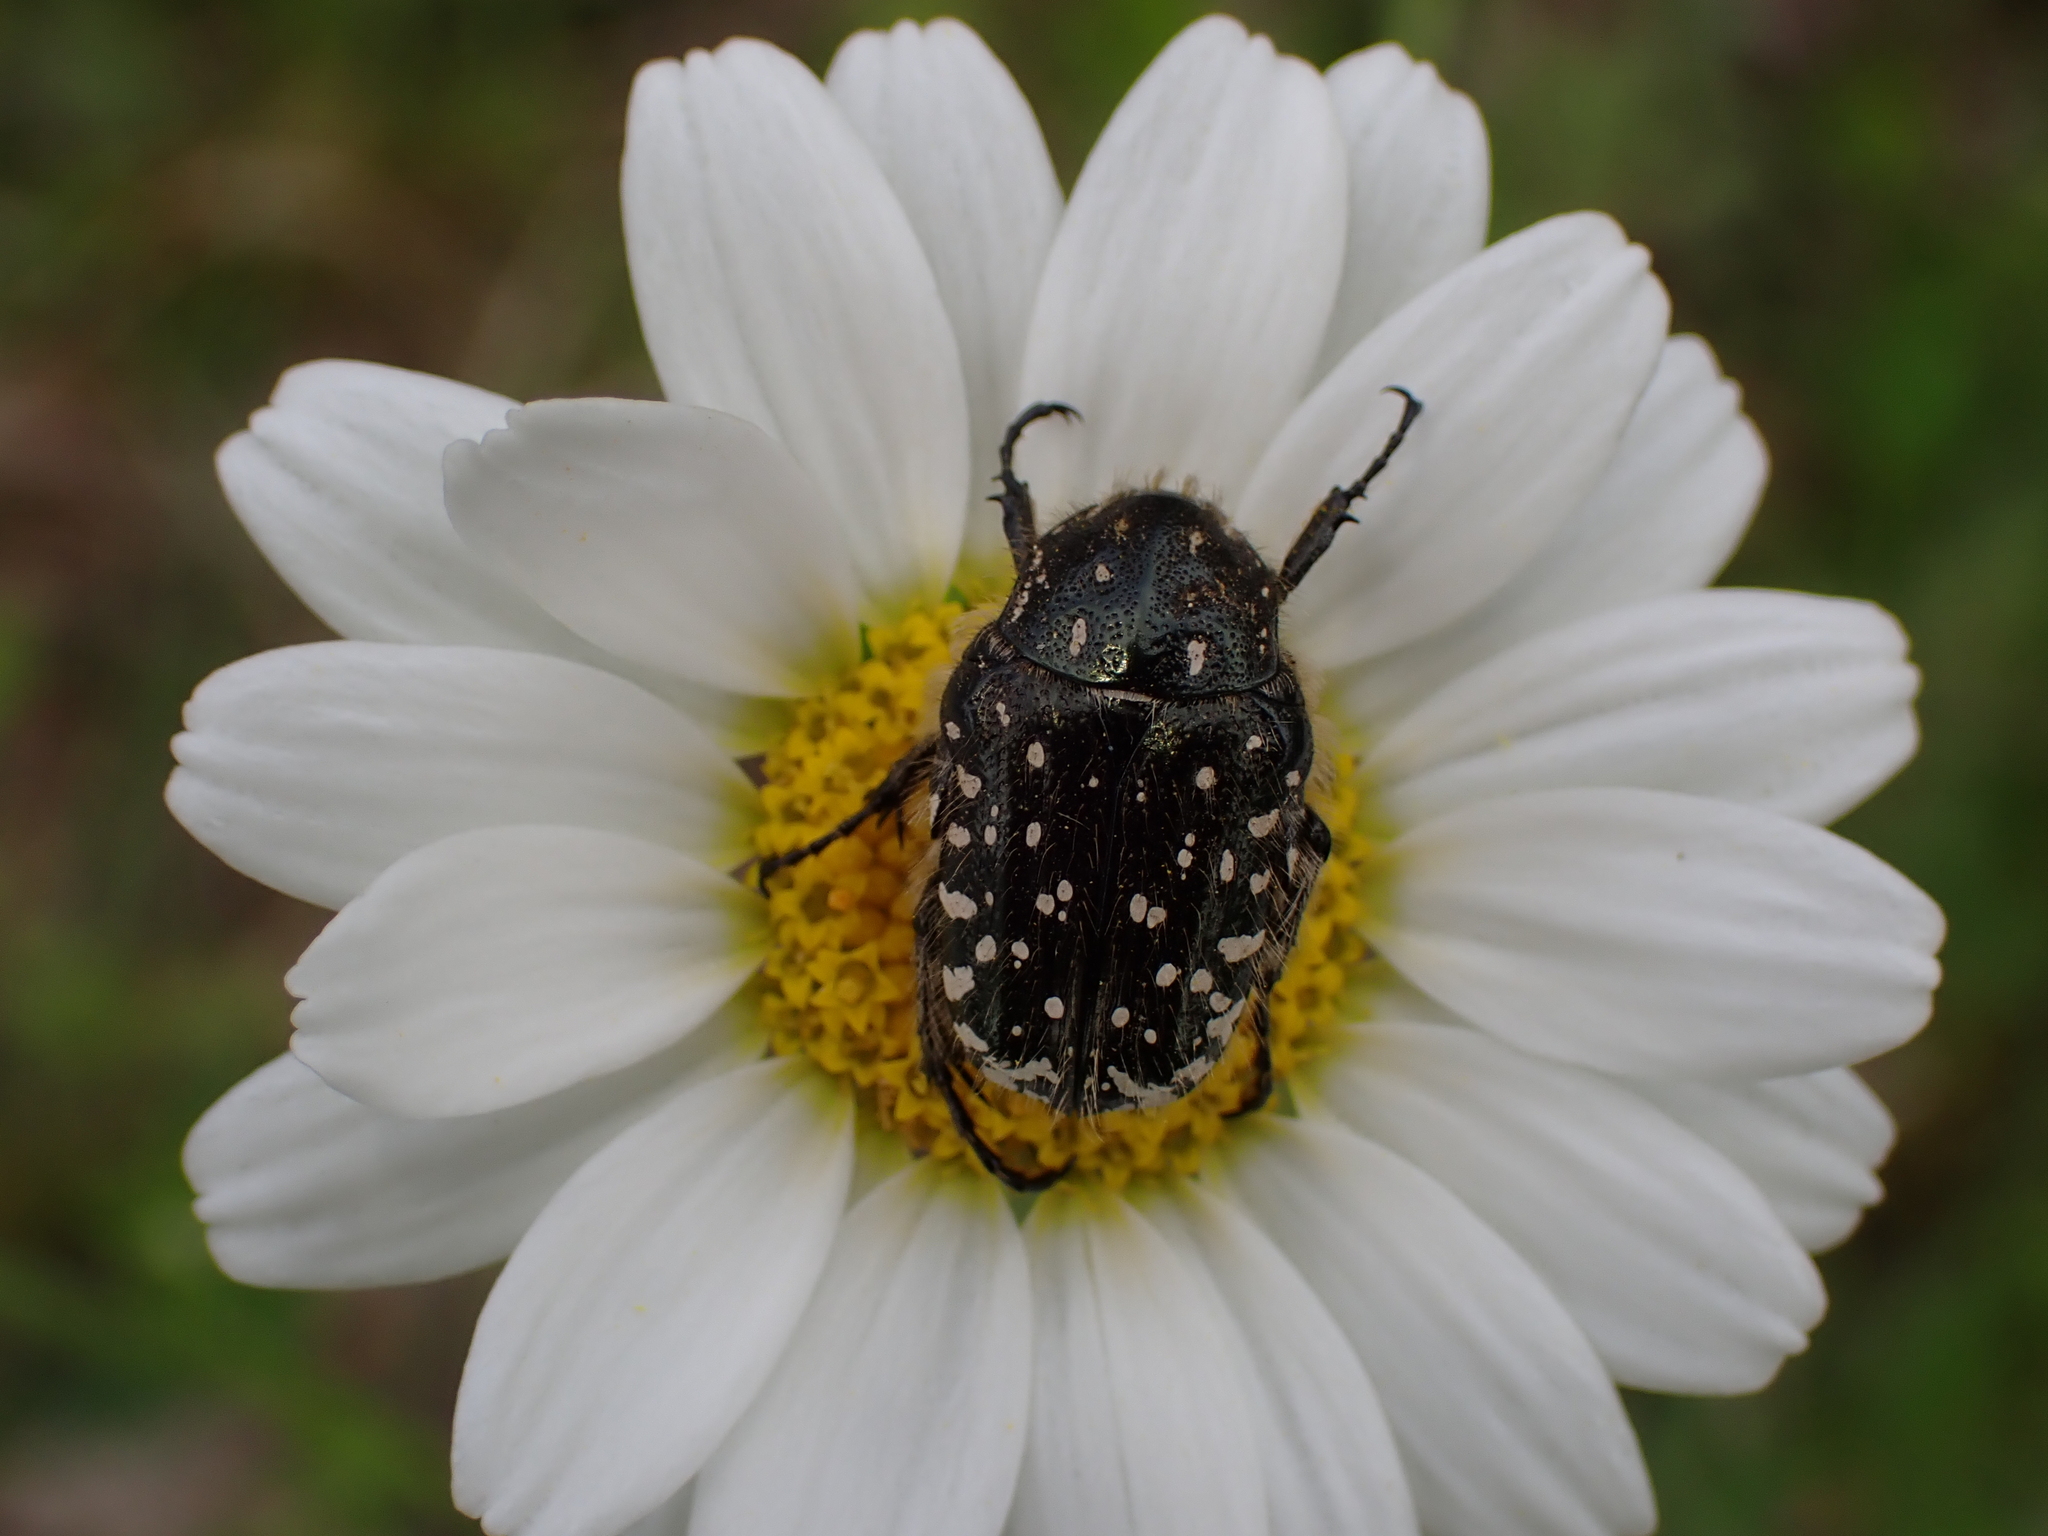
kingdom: Animalia
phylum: Arthropoda
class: Insecta
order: Coleoptera
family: Scarabaeidae
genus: Oxythyrea
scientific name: Oxythyrea funesta
